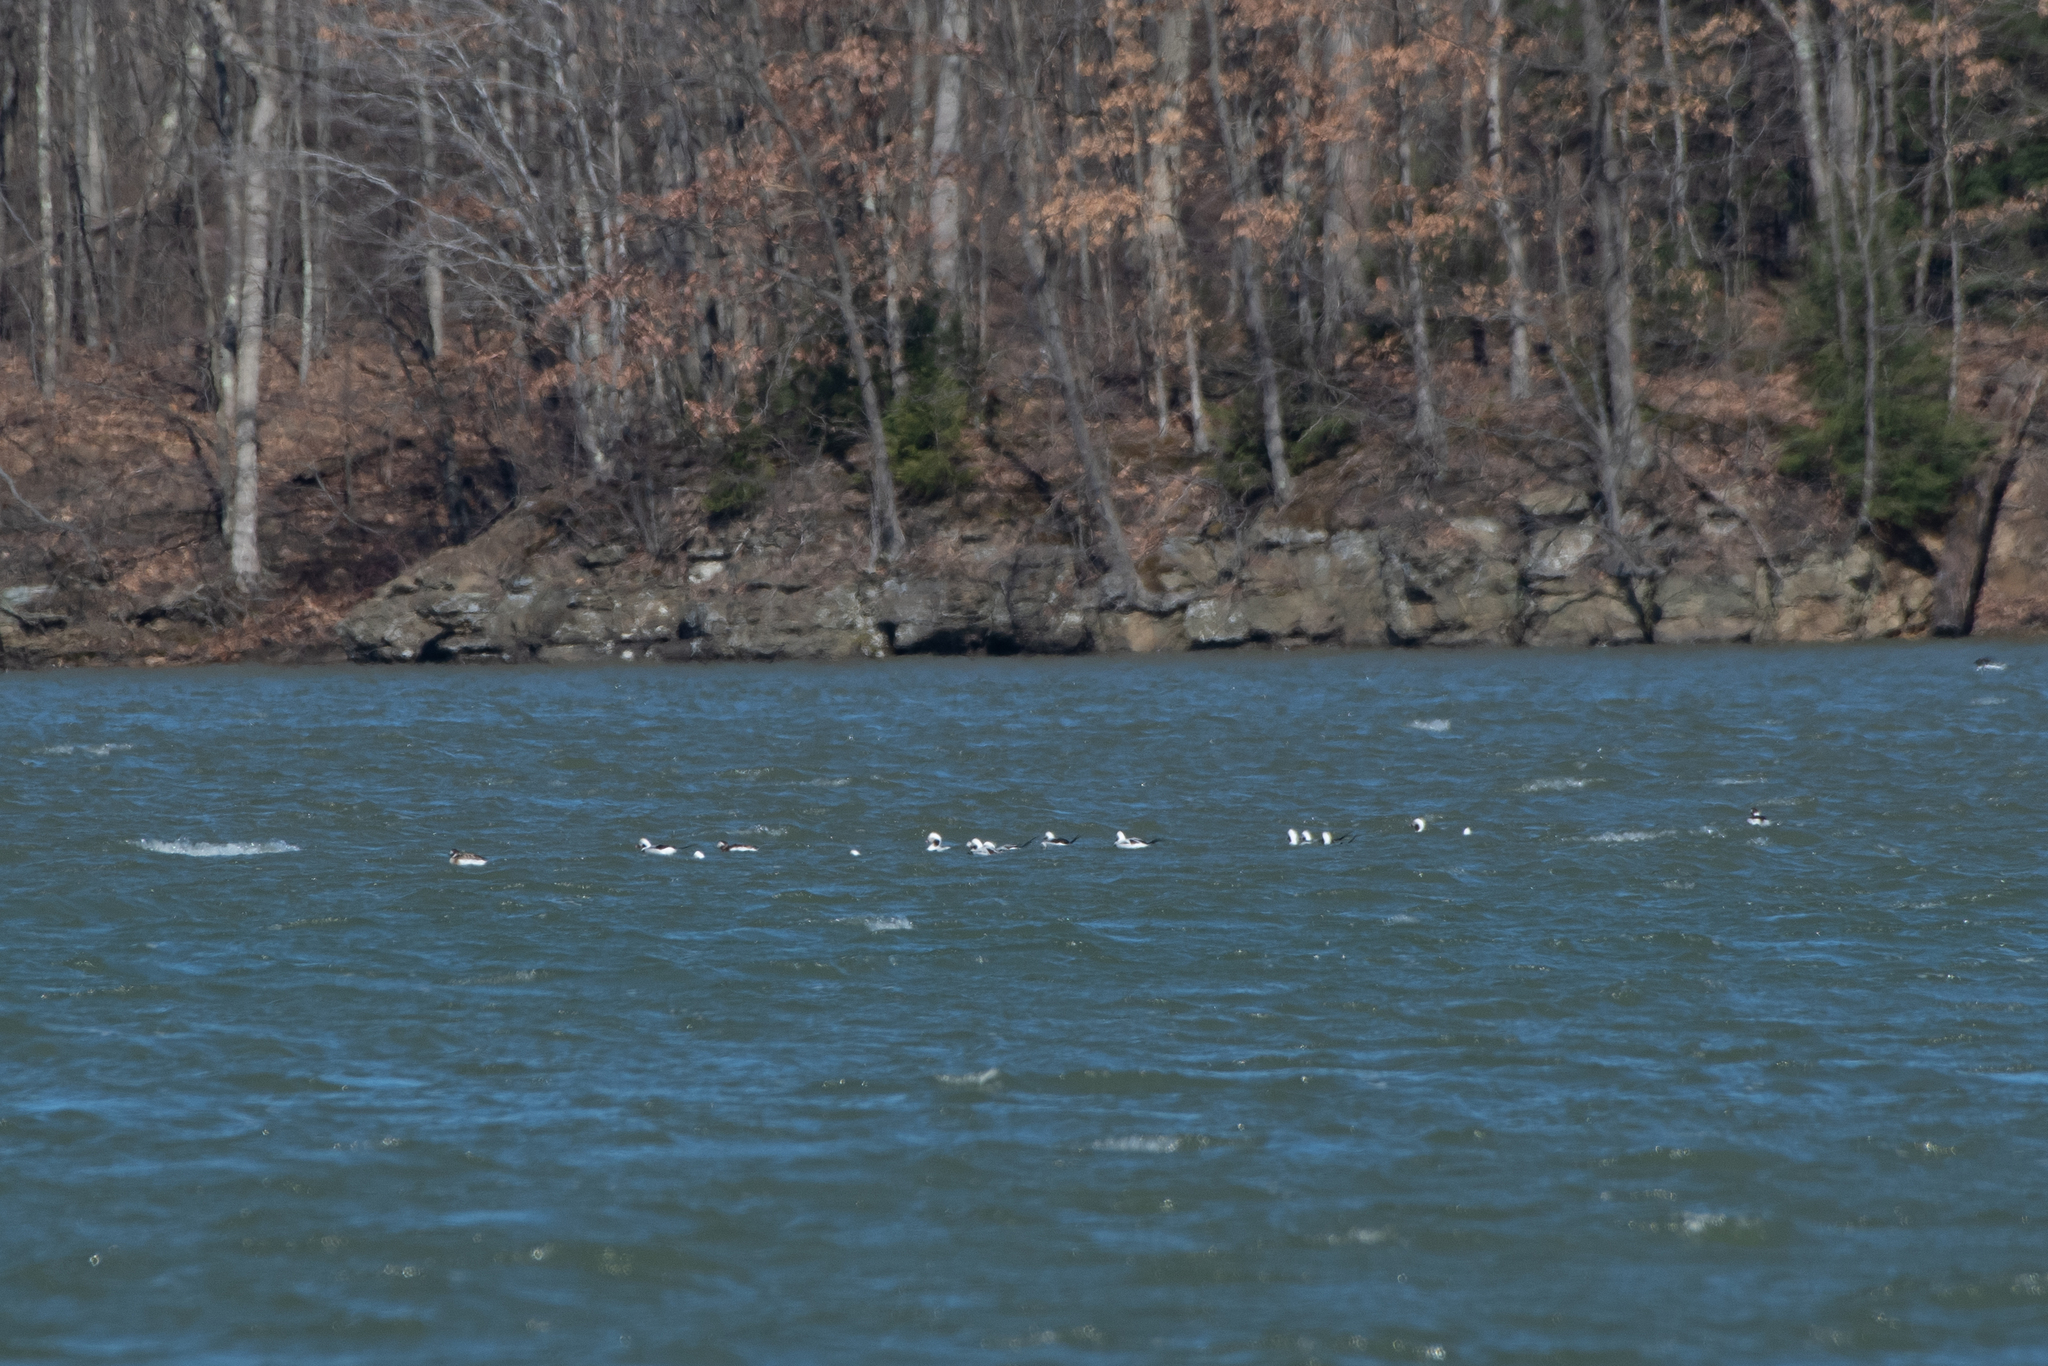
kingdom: Animalia
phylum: Chordata
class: Aves
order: Anseriformes
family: Anatidae
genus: Clangula
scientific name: Clangula hyemalis
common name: Long-tailed duck
